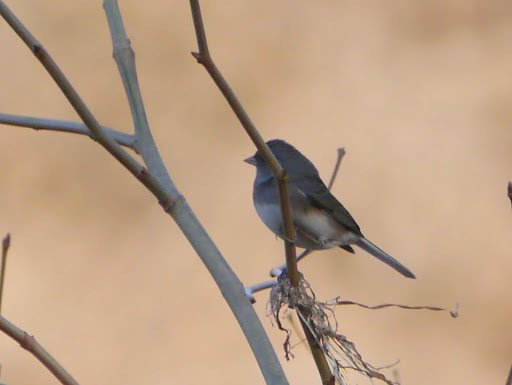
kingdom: Animalia
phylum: Chordata
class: Aves
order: Passeriformes
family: Passerellidae
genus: Junco
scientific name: Junco hyemalis
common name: Dark-eyed junco
